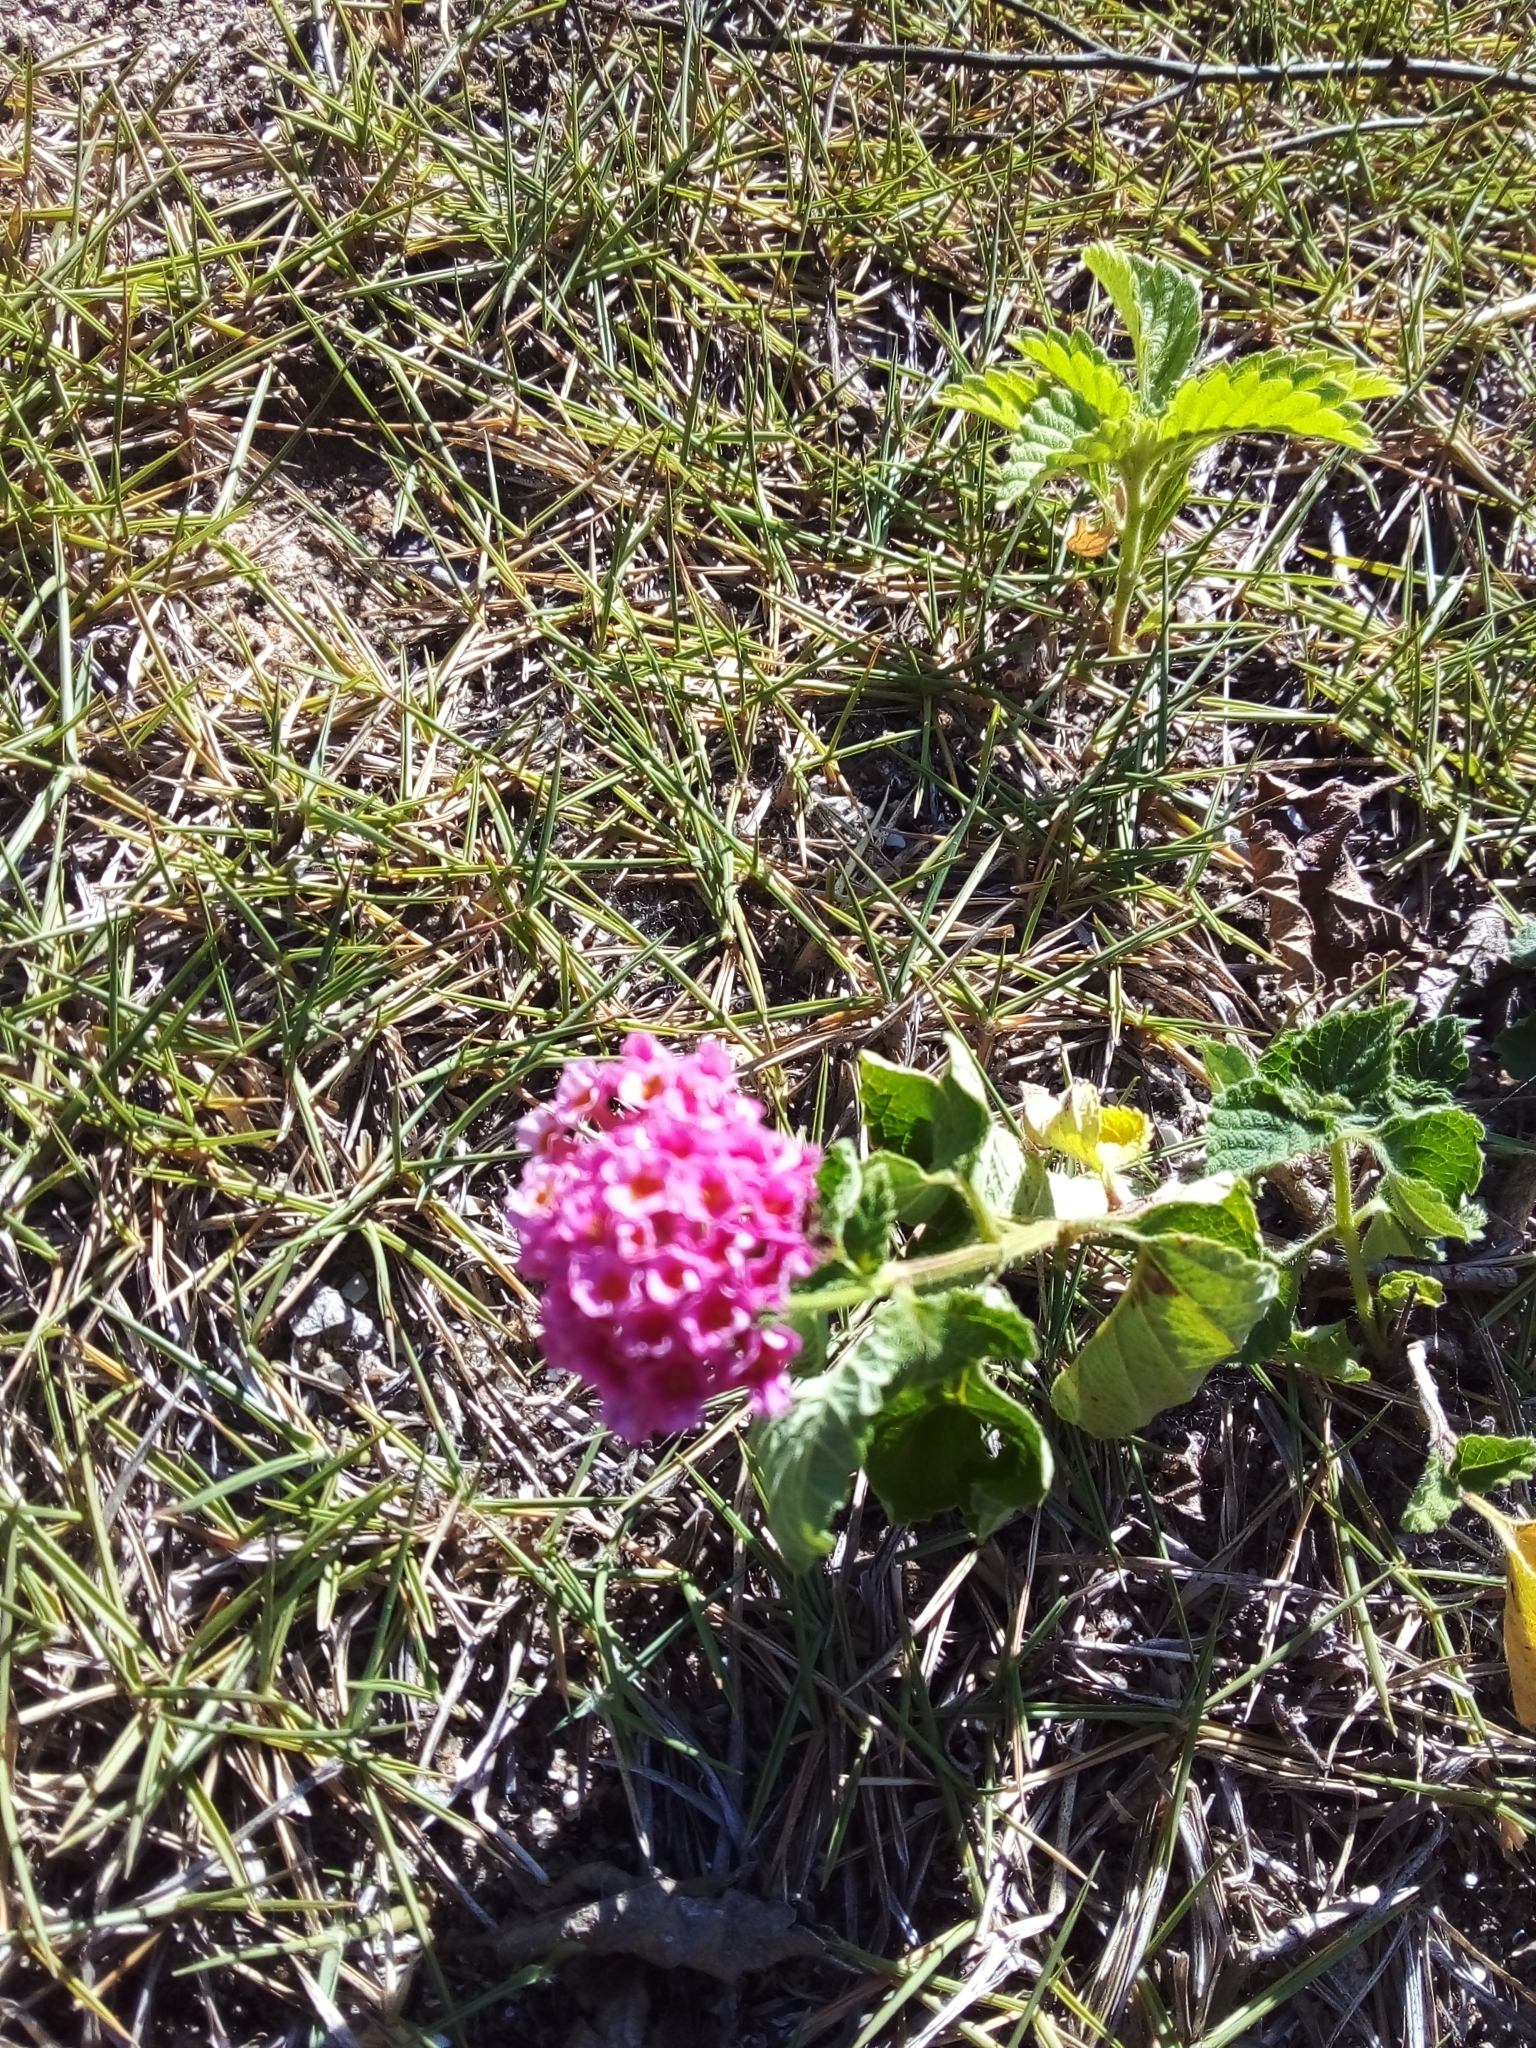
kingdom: Plantae
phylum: Tracheophyta
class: Magnoliopsida
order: Lamiales
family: Verbenaceae
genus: Lantana
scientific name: Lantana camara
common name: Lantana
